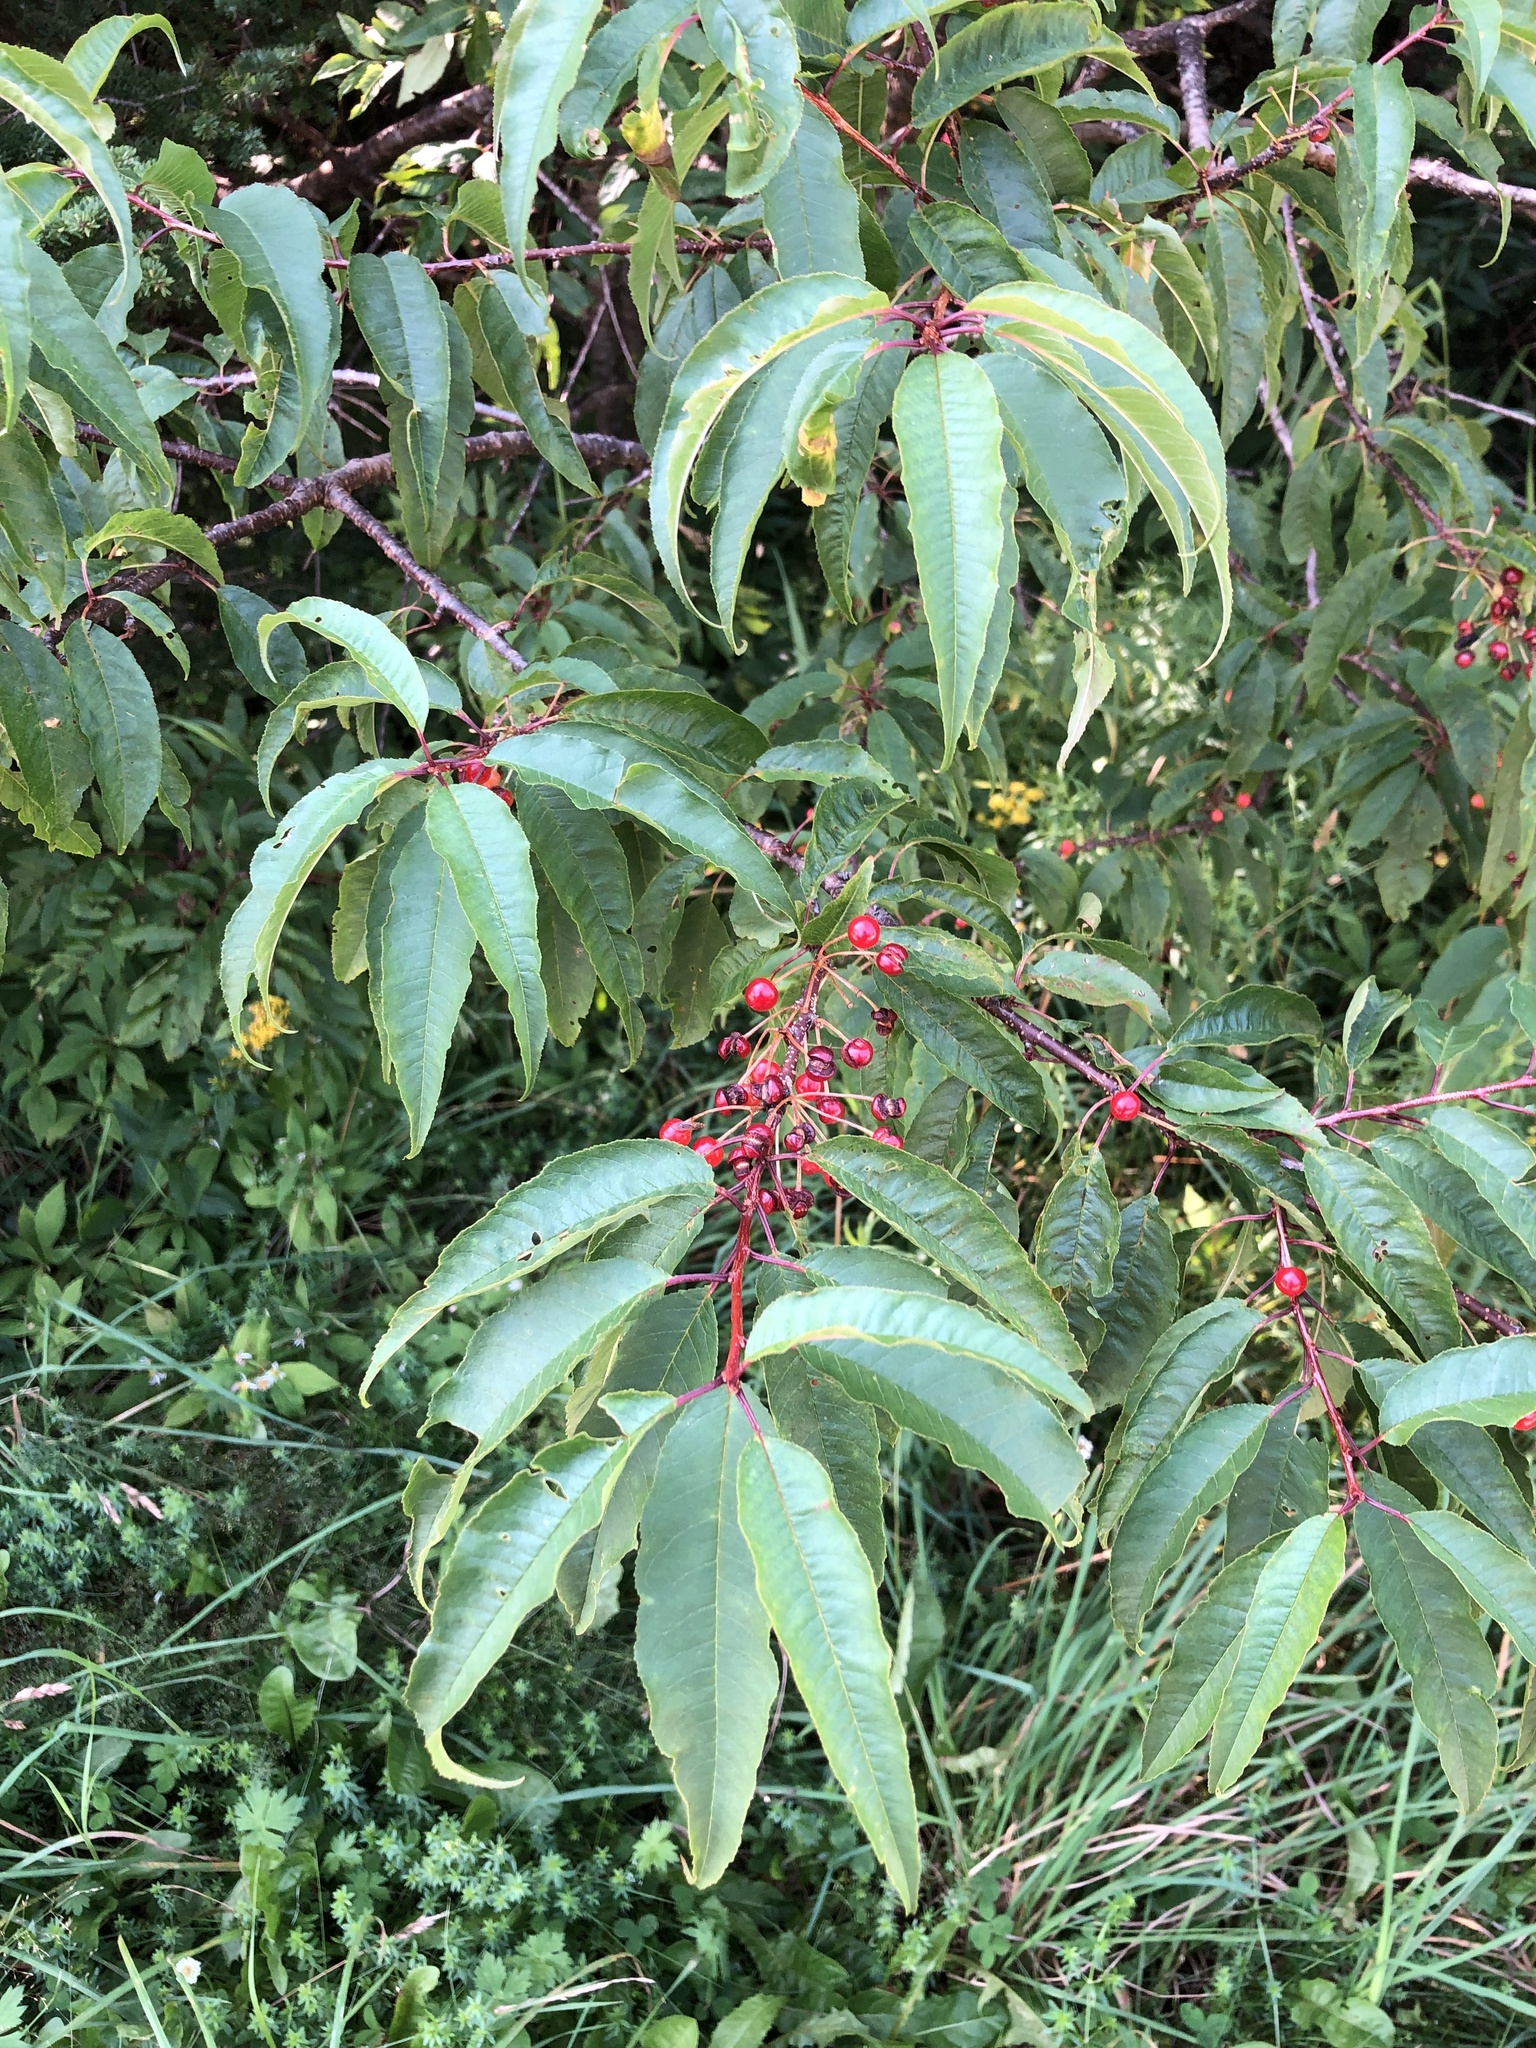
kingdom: Plantae
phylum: Tracheophyta
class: Magnoliopsida
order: Rosales
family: Rosaceae
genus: Prunus
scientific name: Prunus pensylvanica
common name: Pin cherry
